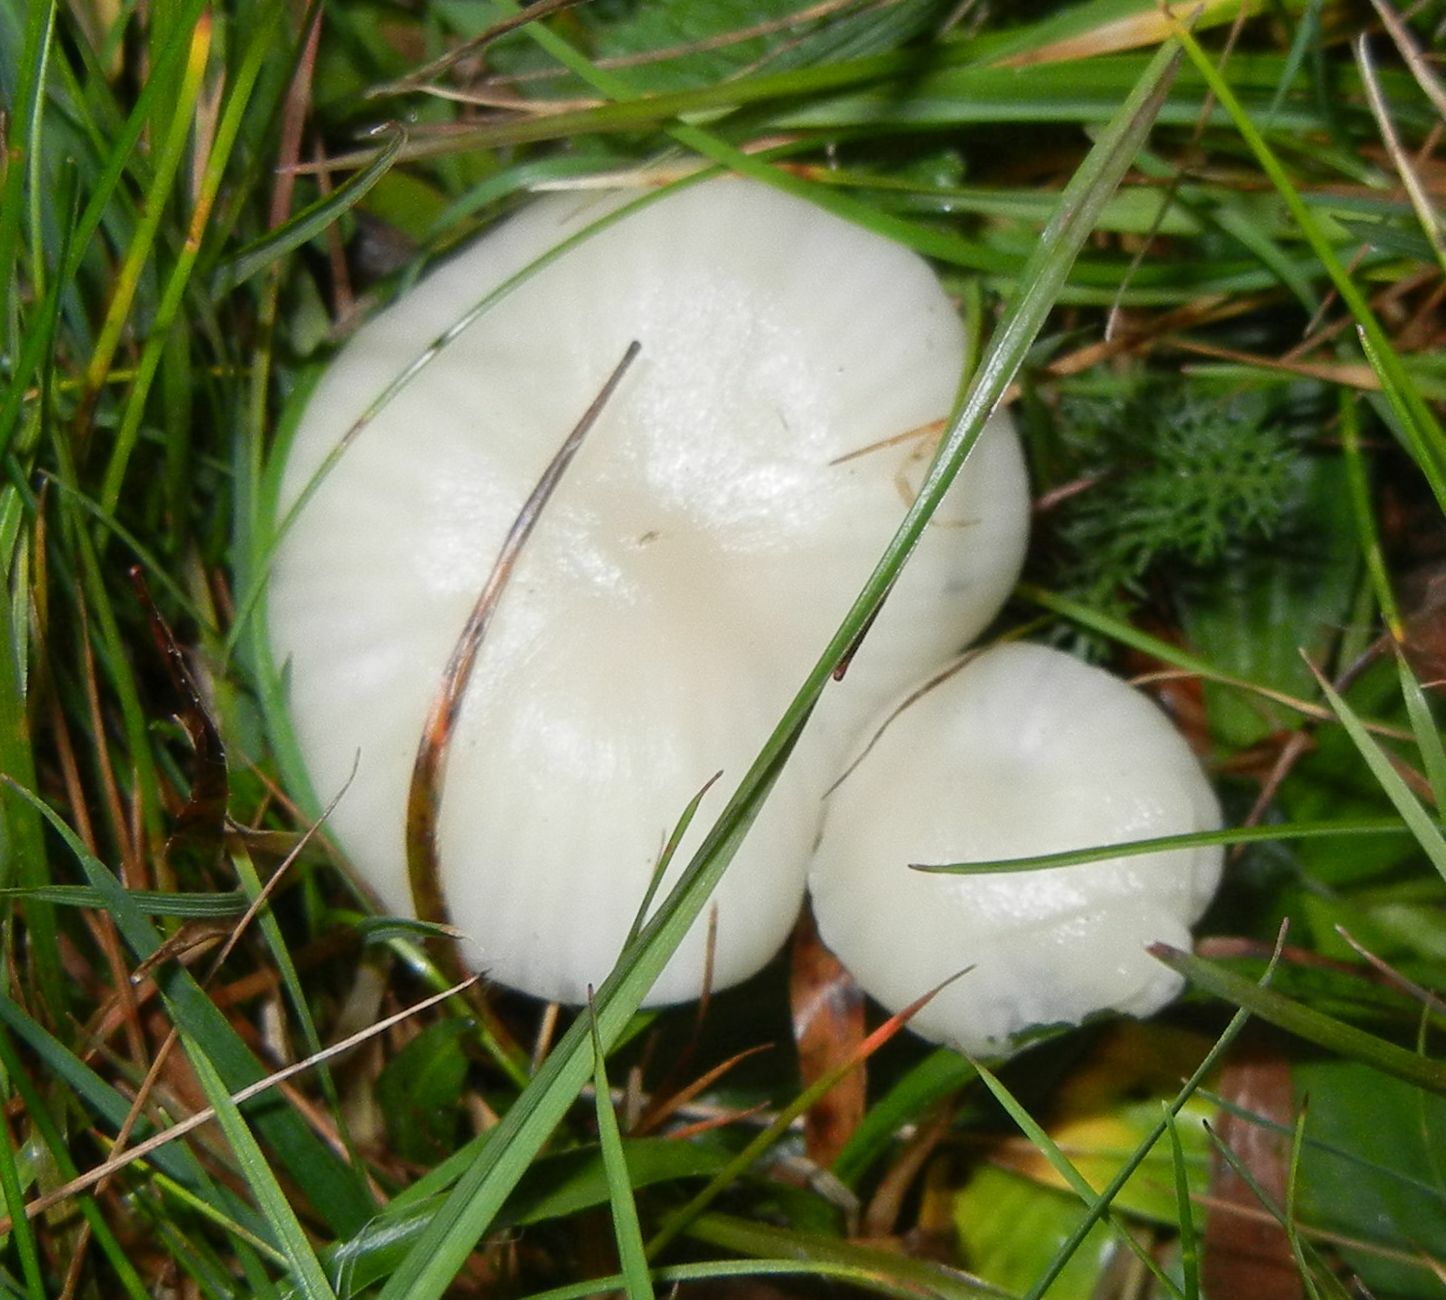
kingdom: Fungi
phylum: Basidiomycota
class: Agaricomycetes
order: Agaricales
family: Hygrophoraceae
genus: Cuphophyllus
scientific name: Cuphophyllus virgineus
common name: Snowy waxcap
